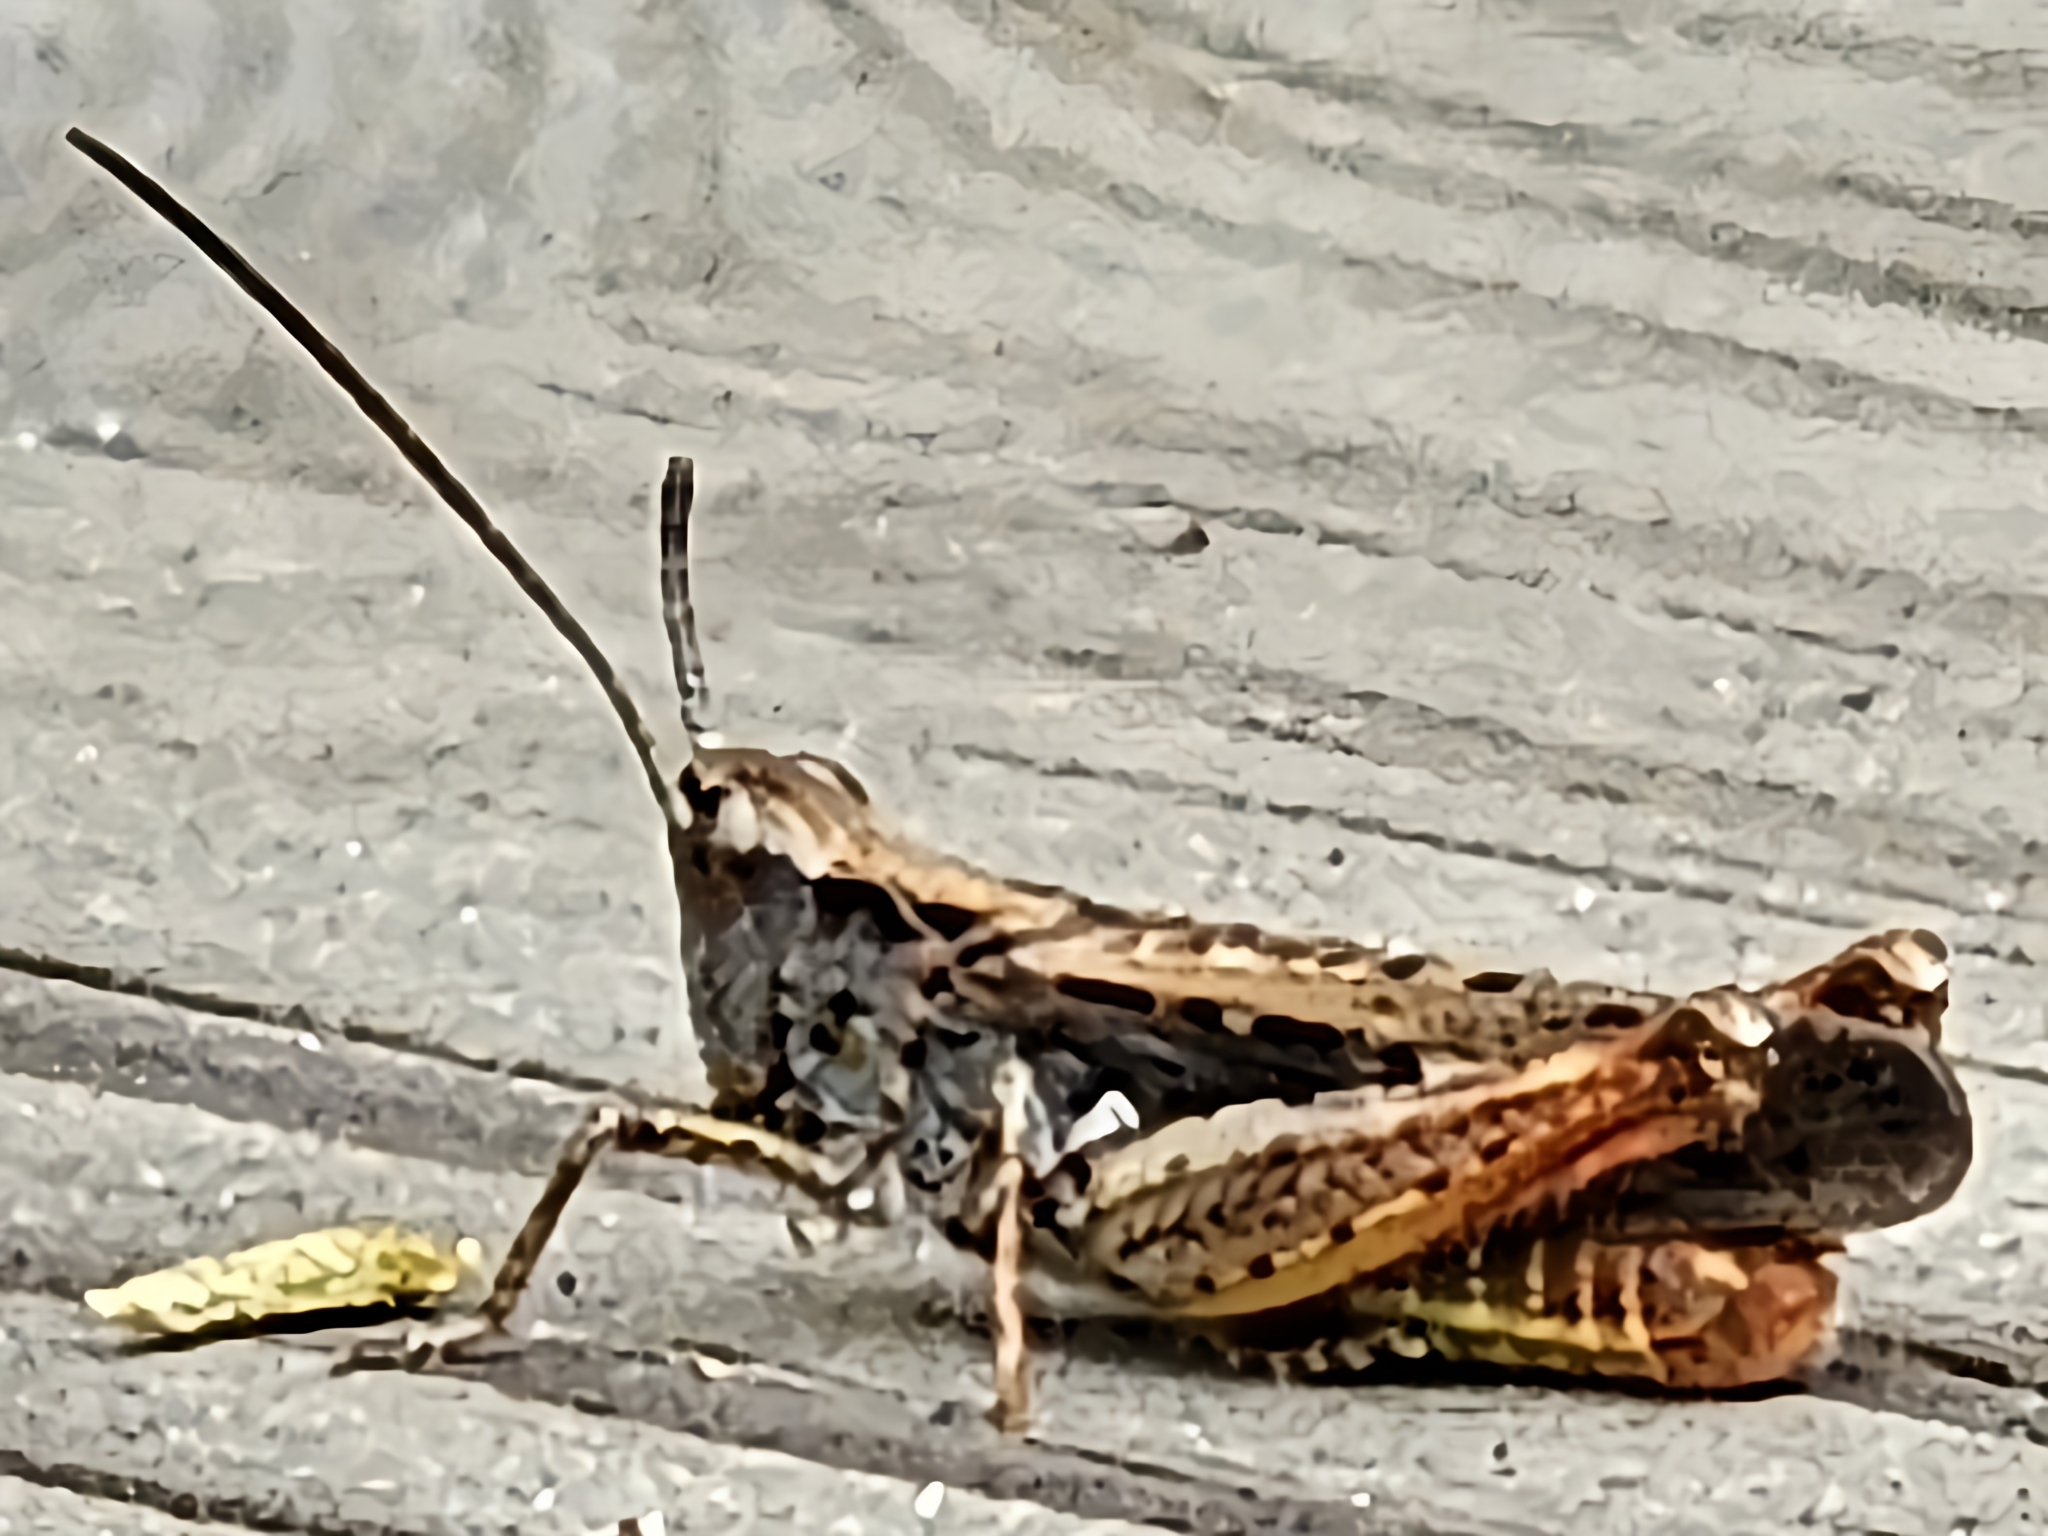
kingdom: Animalia
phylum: Arthropoda
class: Insecta
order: Orthoptera
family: Acrididae
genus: Chorthippus
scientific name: Chorthippus brunneus
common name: Field grasshopper
